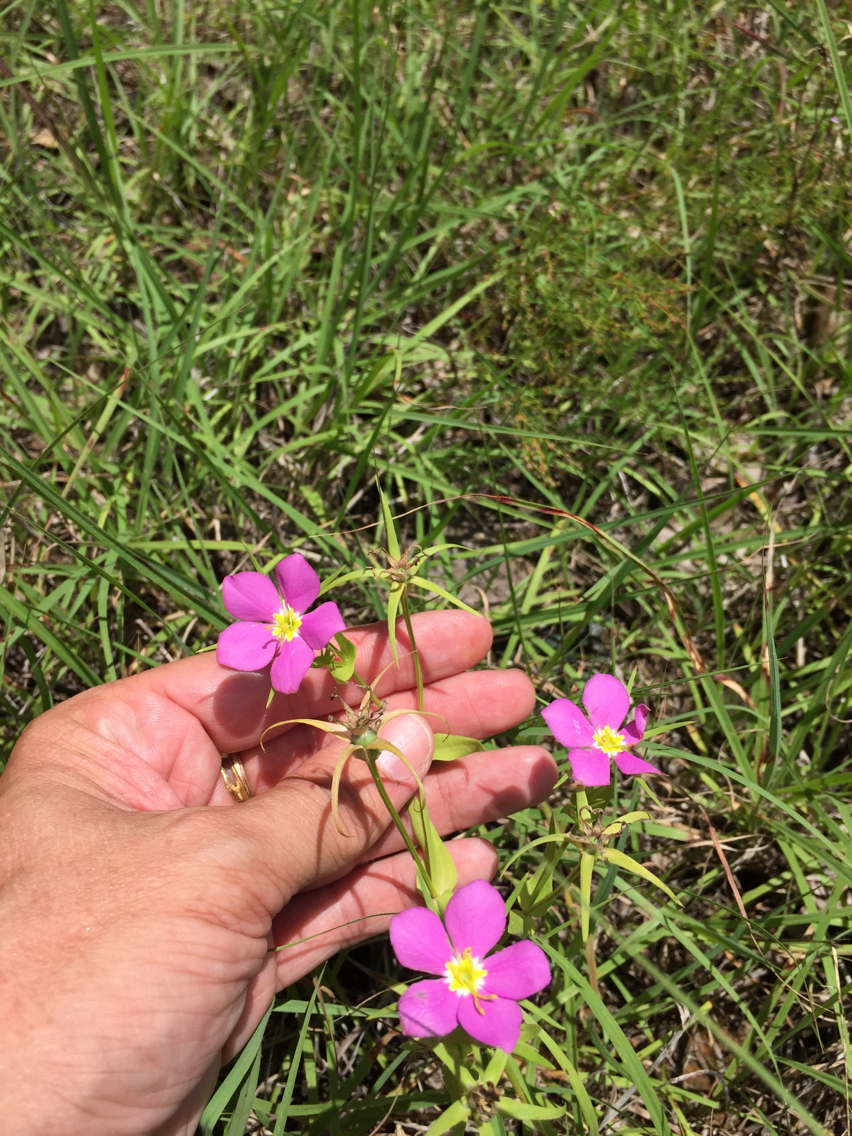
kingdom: Plantae
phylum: Tracheophyta
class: Magnoliopsida
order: Gentianales
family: Gentianaceae
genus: Sabatia
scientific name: Sabatia campestris
